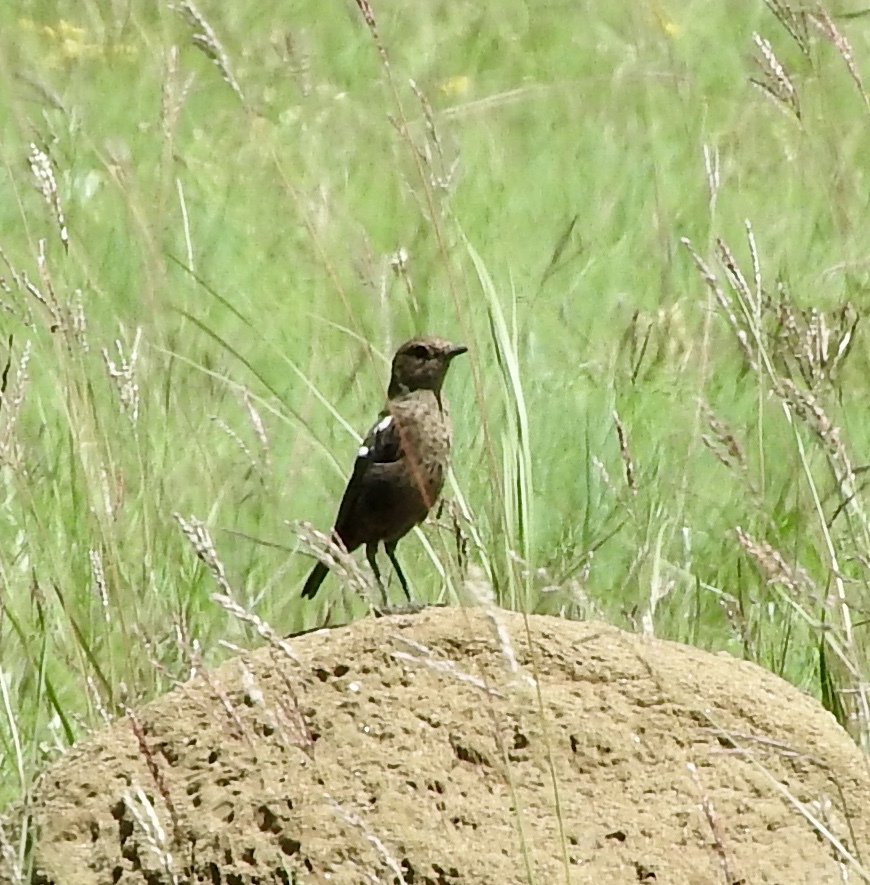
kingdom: Animalia
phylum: Chordata
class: Aves
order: Passeriformes
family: Muscicapidae
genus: Myrmecocichla
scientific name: Myrmecocichla formicivora
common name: Ant-eating chat
